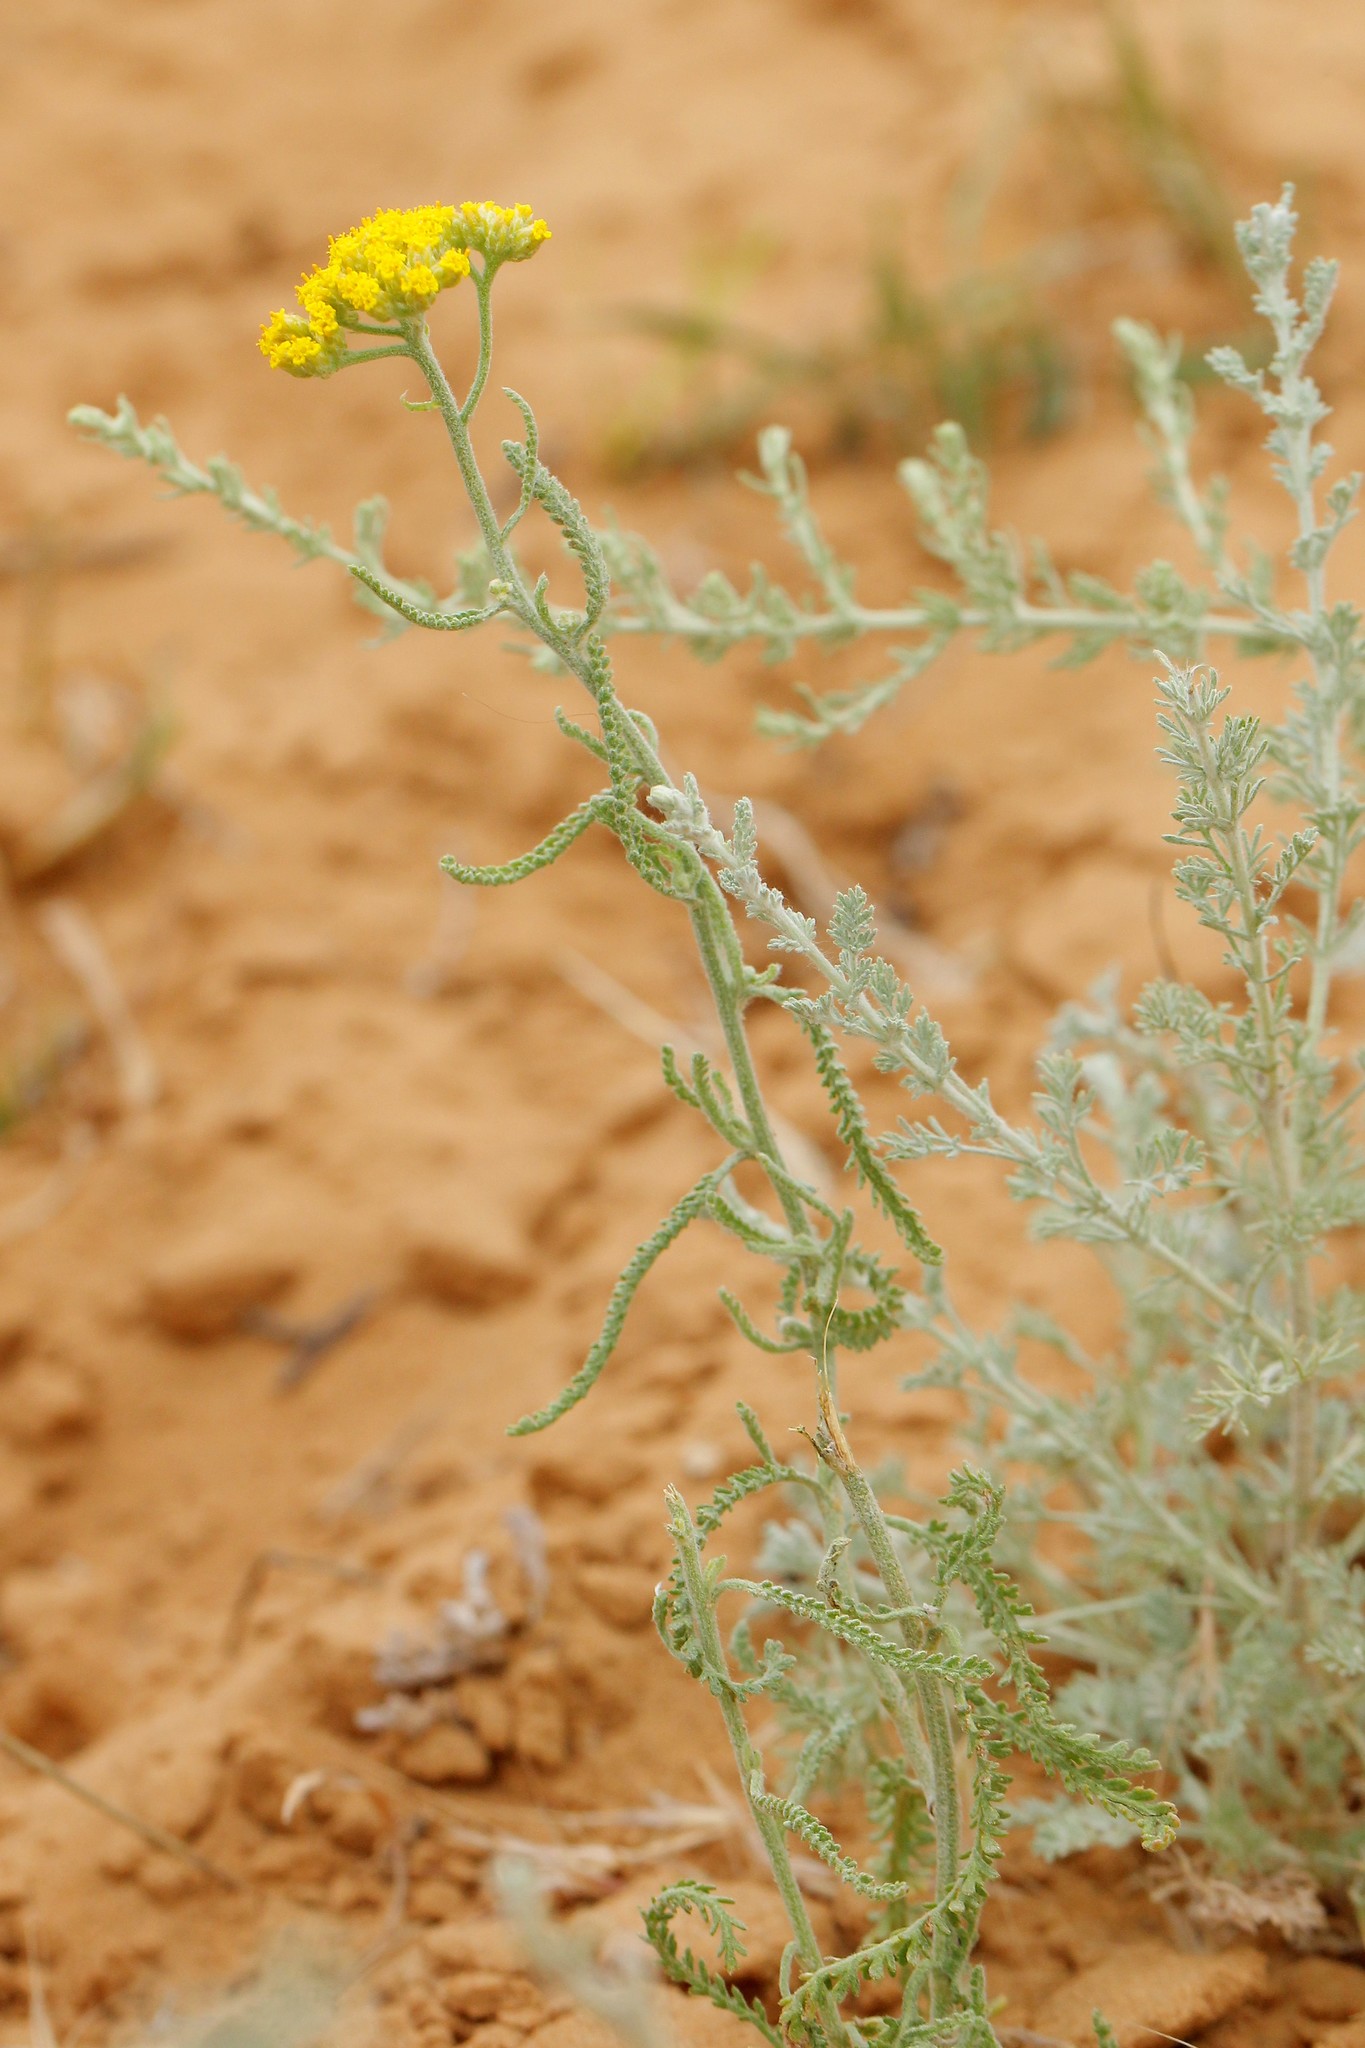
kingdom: Plantae
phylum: Tracheophyta
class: Magnoliopsida
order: Asterales
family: Asteraceae
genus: Achillea
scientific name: Achillea micrantha
